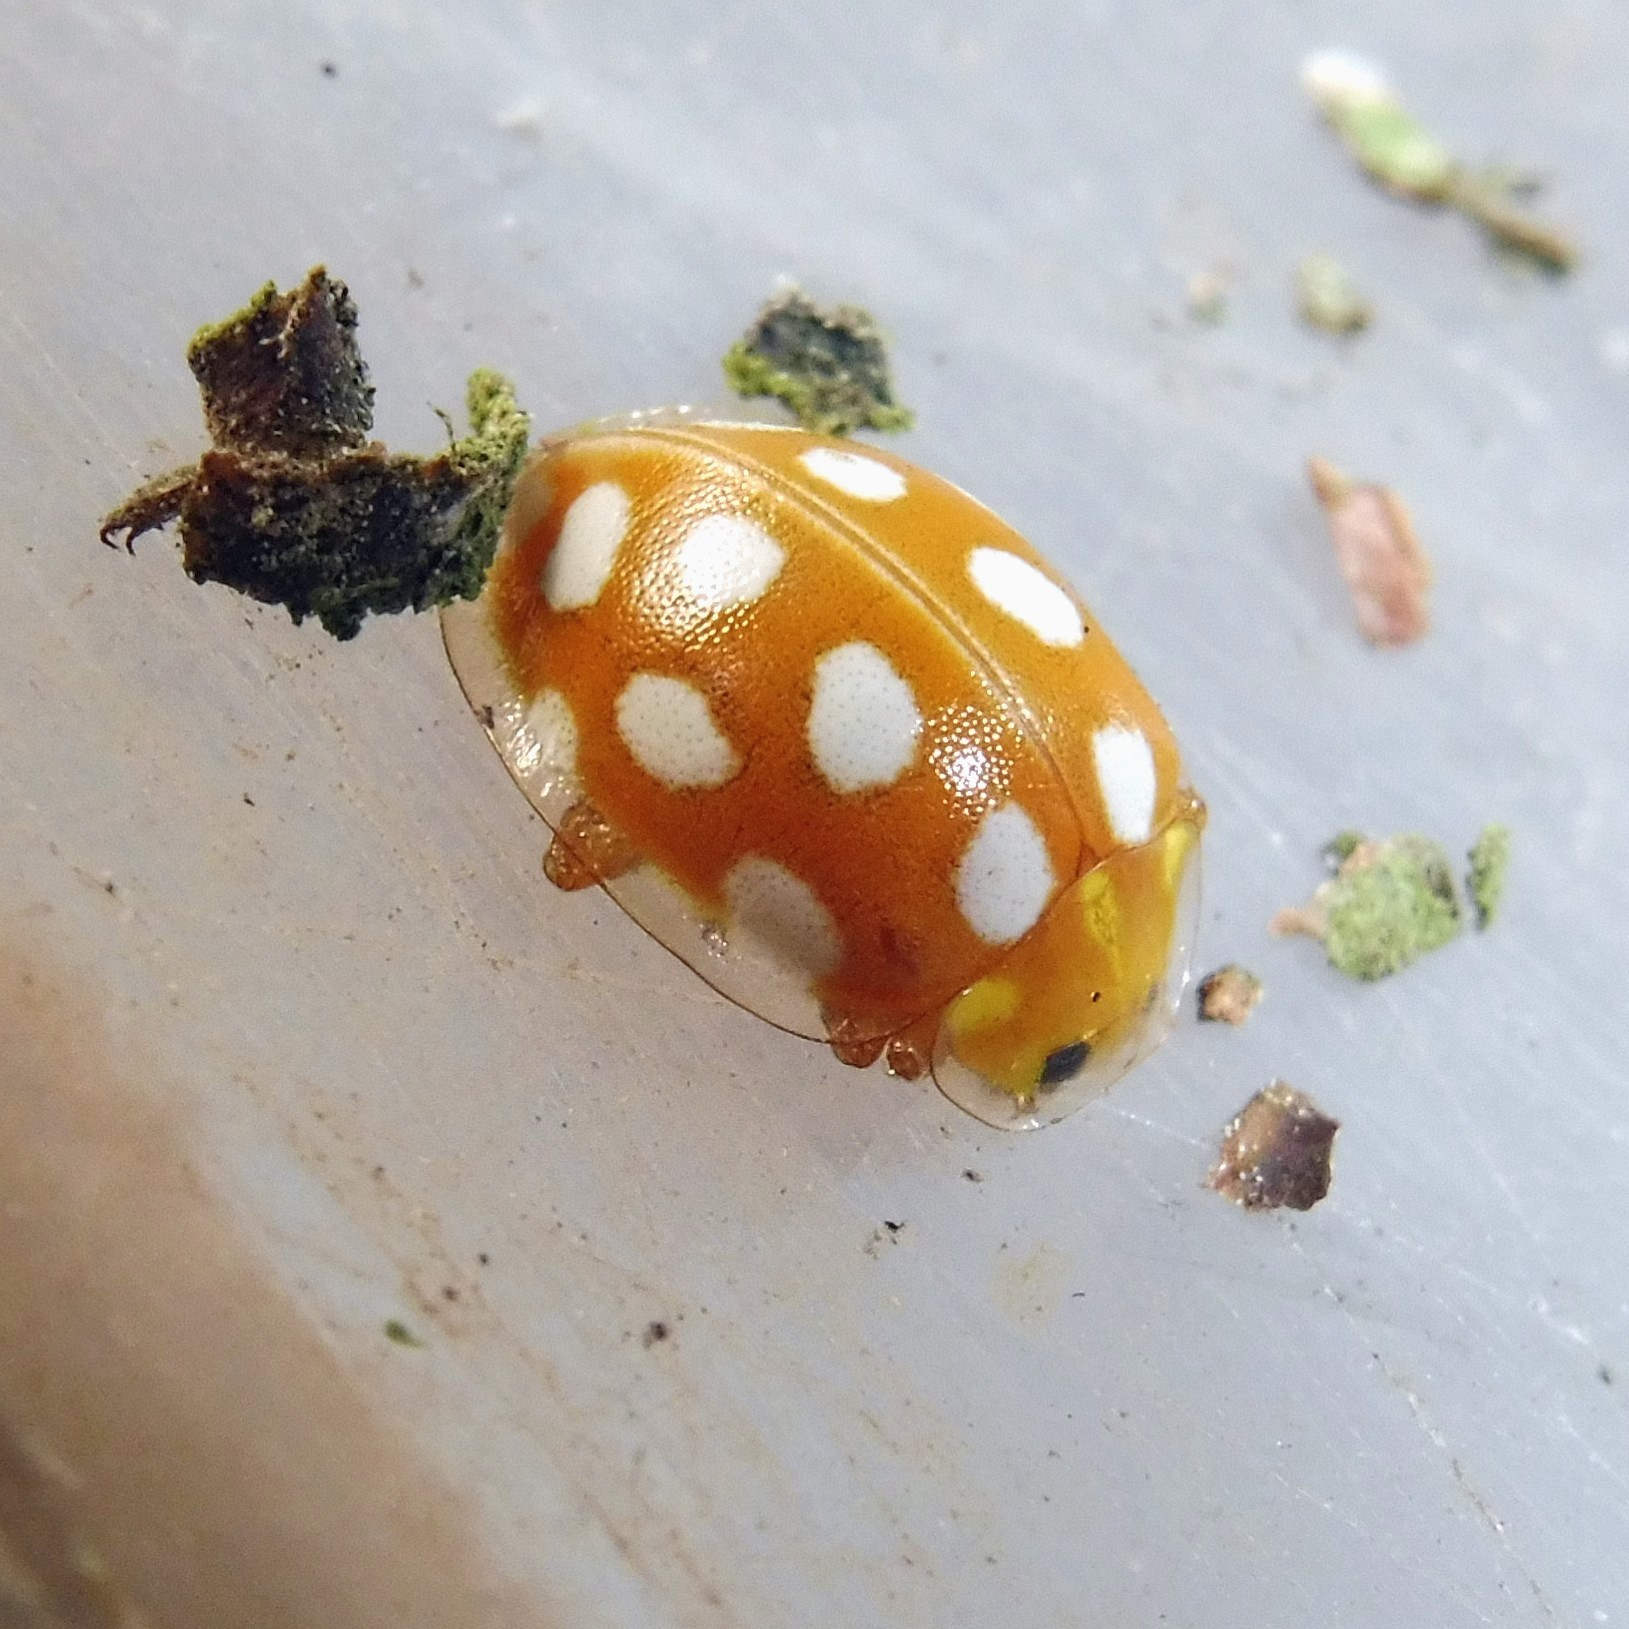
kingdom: Animalia
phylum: Arthropoda
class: Insecta
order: Coleoptera
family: Coccinellidae
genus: Halyzia
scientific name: Halyzia sedecimguttata
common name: Orange ladybird
